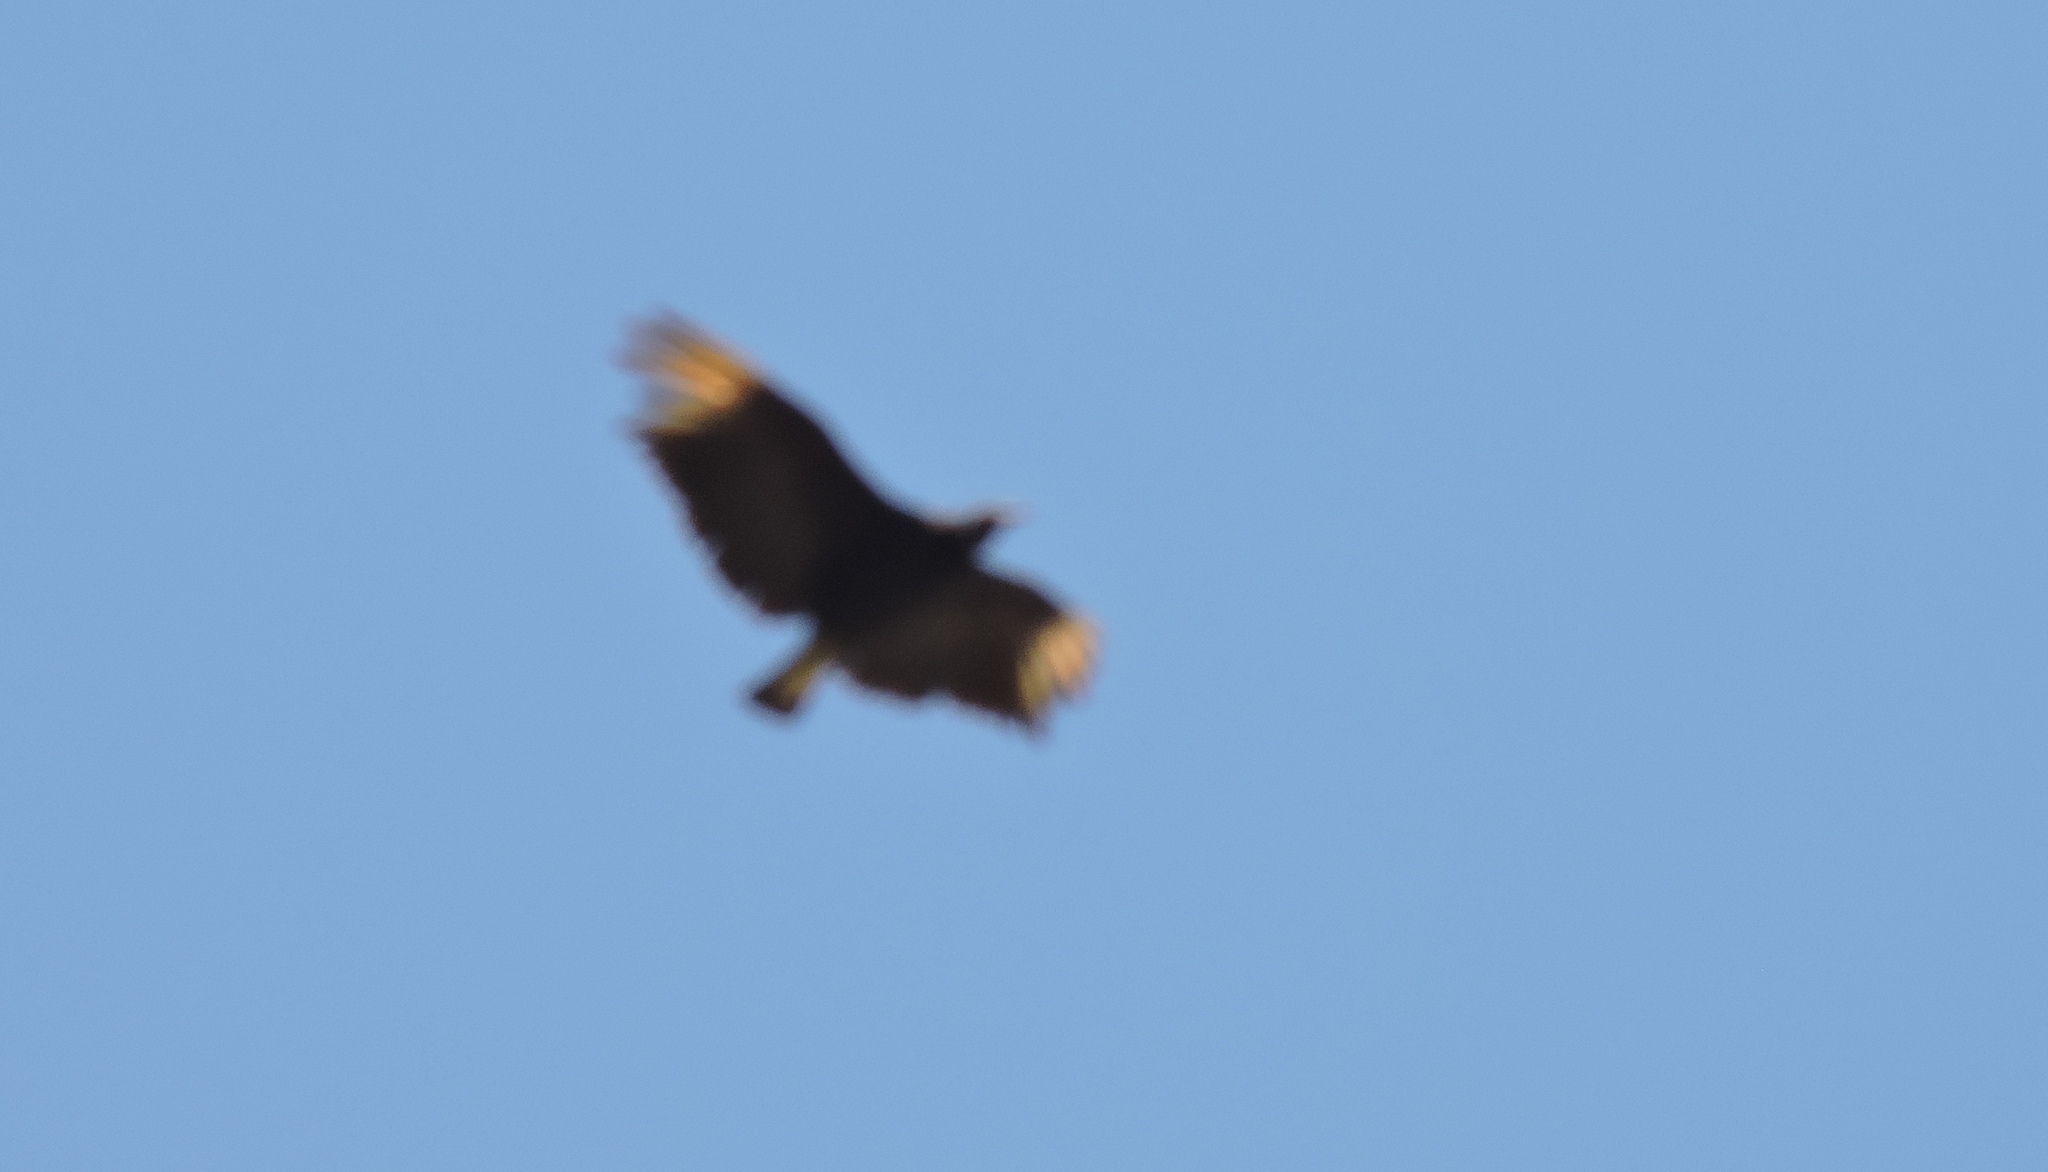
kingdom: Animalia
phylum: Chordata
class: Aves
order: Accipitriformes
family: Cathartidae
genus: Coragyps
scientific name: Coragyps atratus
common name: Black vulture
